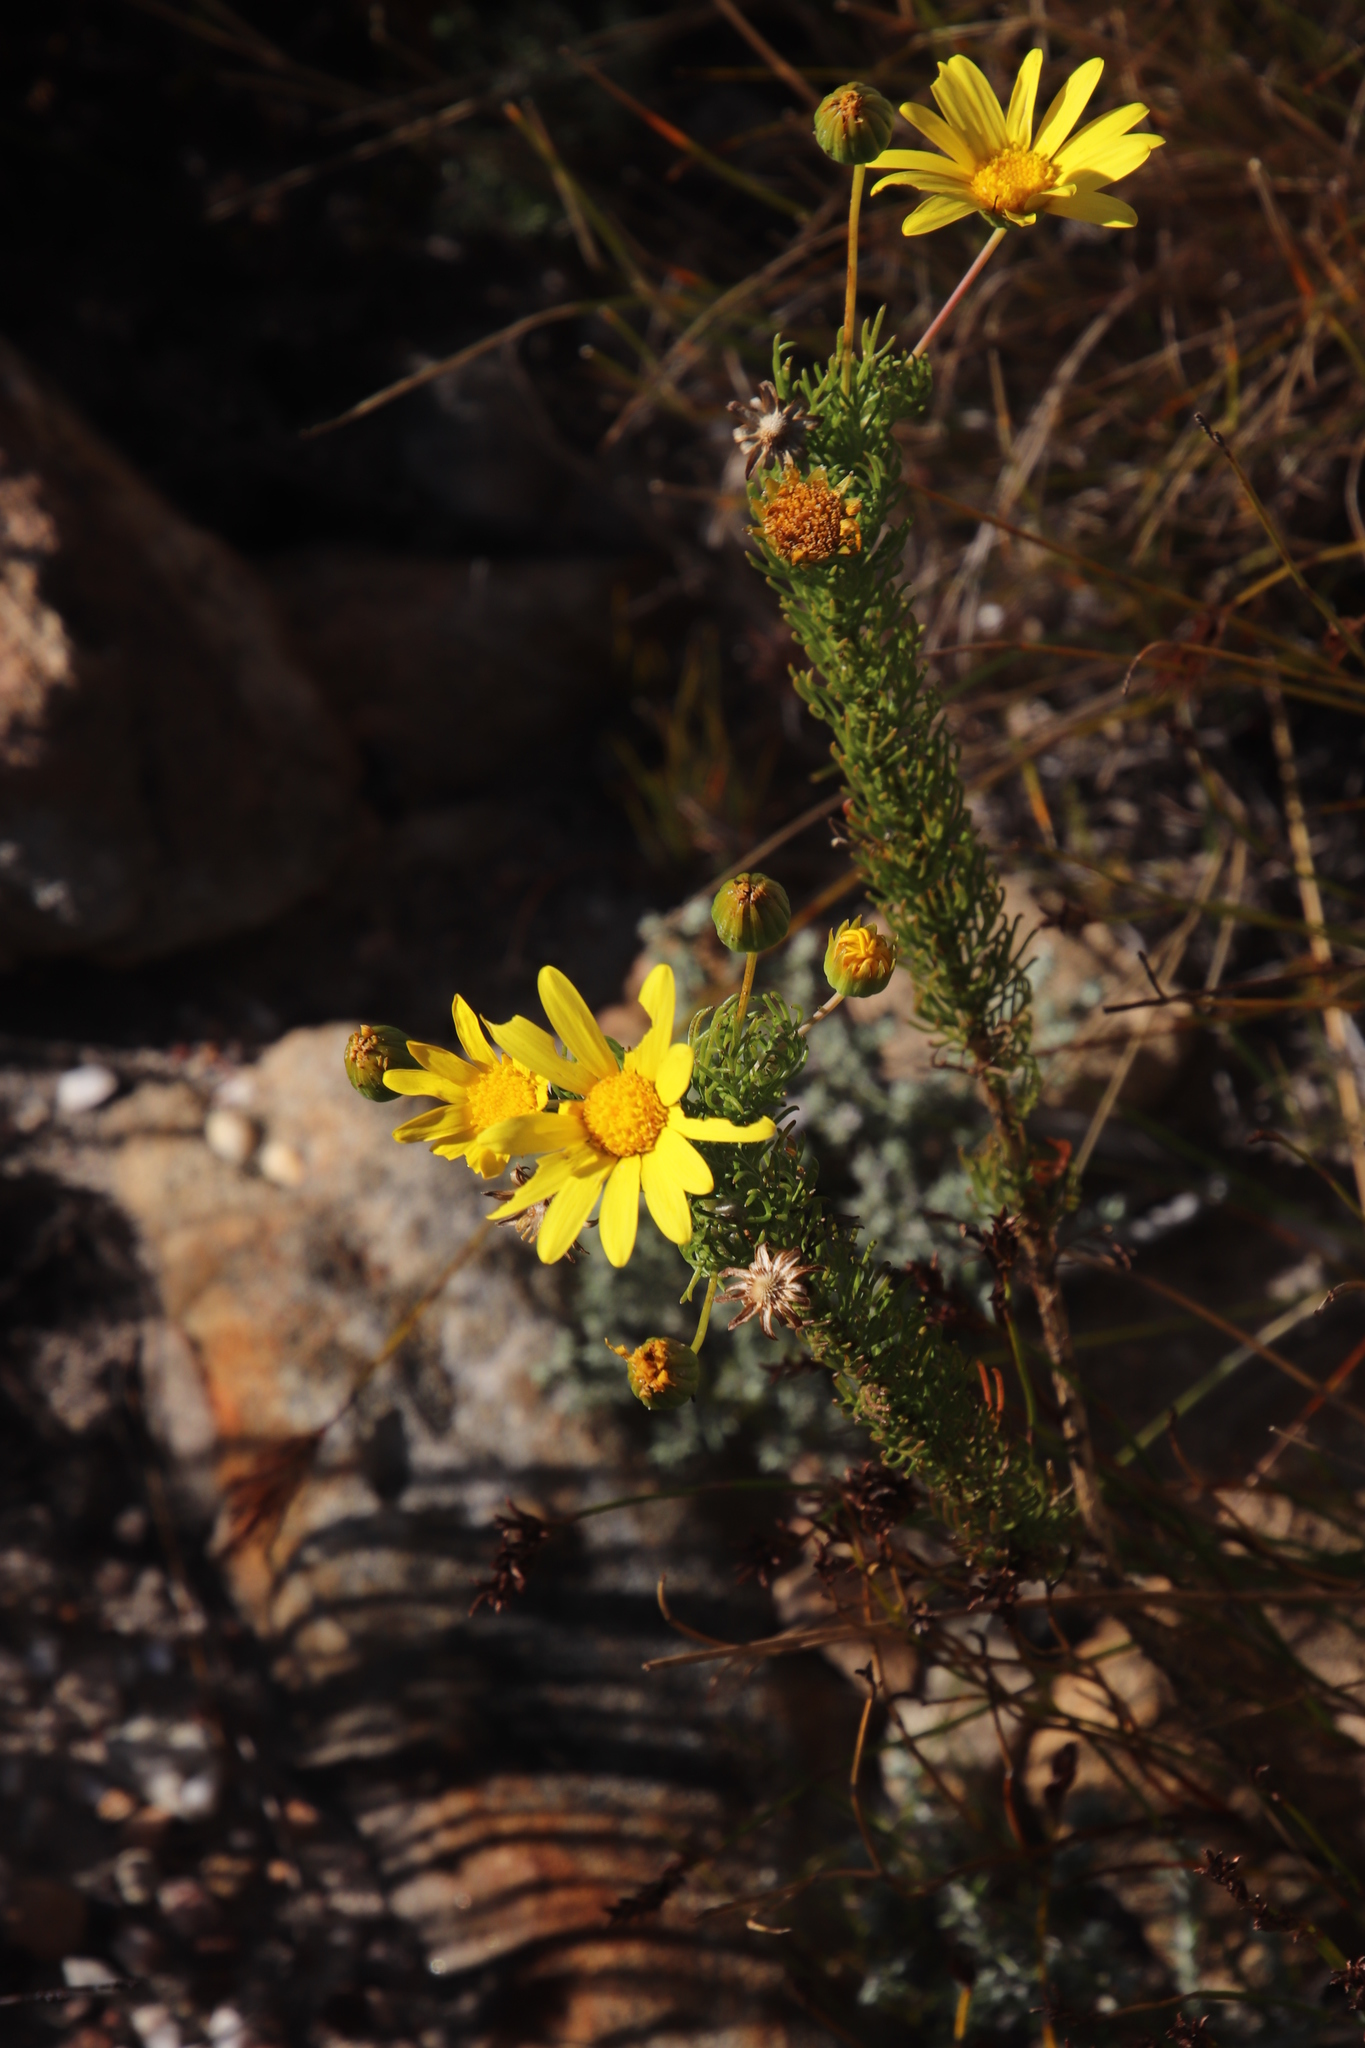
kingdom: Plantae
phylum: Tracheophyta
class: Magnoliopsida
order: Asterales
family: Asteraceae
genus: Euryops
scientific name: Euryops abrotanifolius
